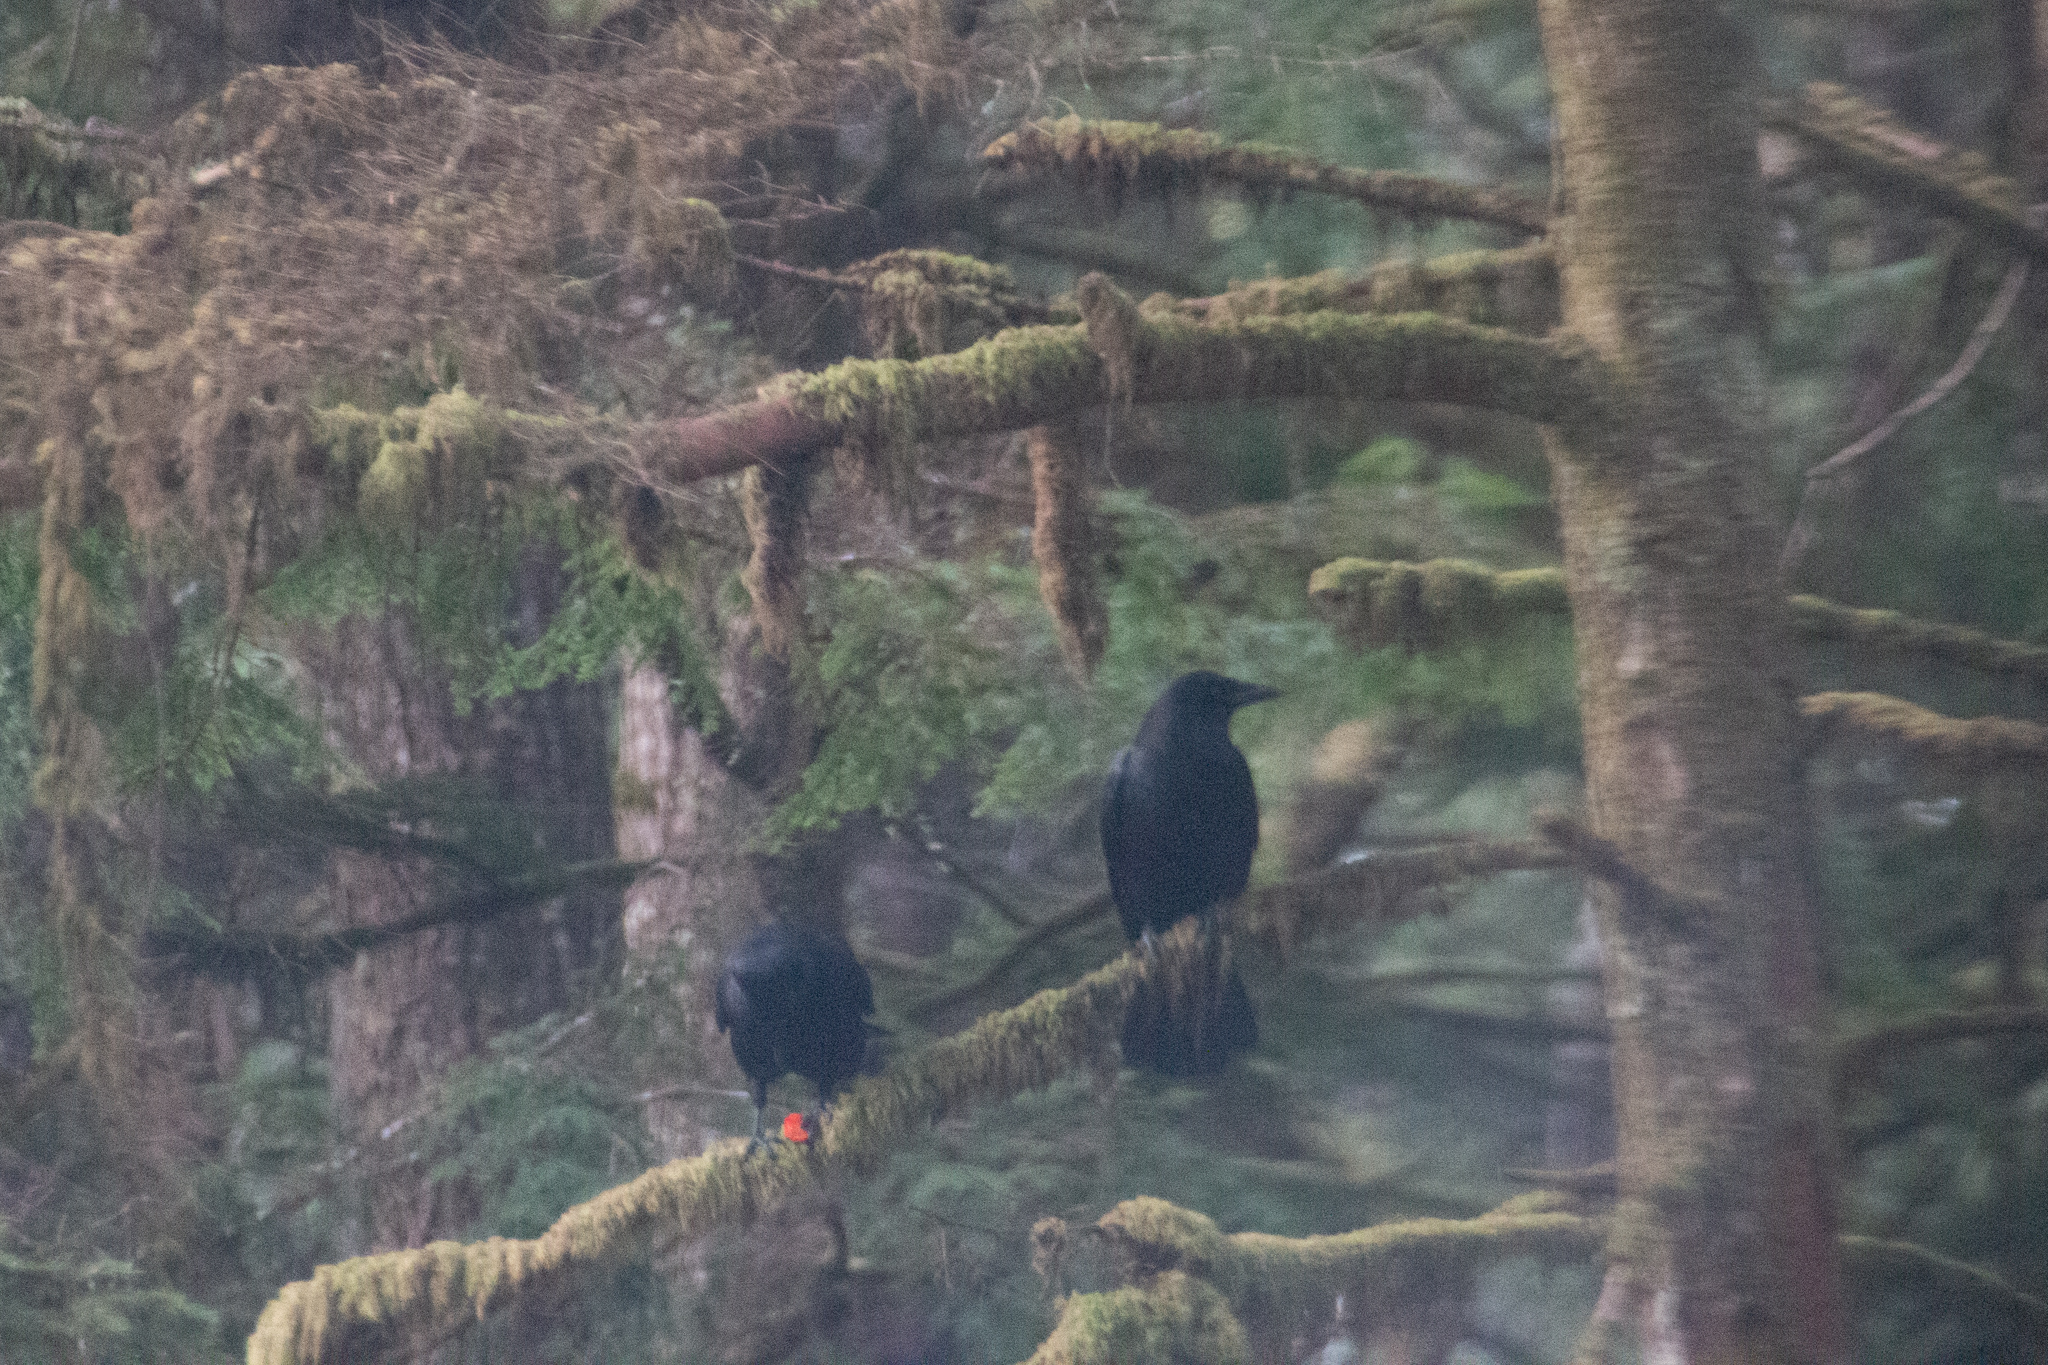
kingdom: Animalia
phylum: Chordata
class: Aves
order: Passeriformes
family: Corvidae
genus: Corvus
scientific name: Corvus brachyrhynchos
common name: American crow
